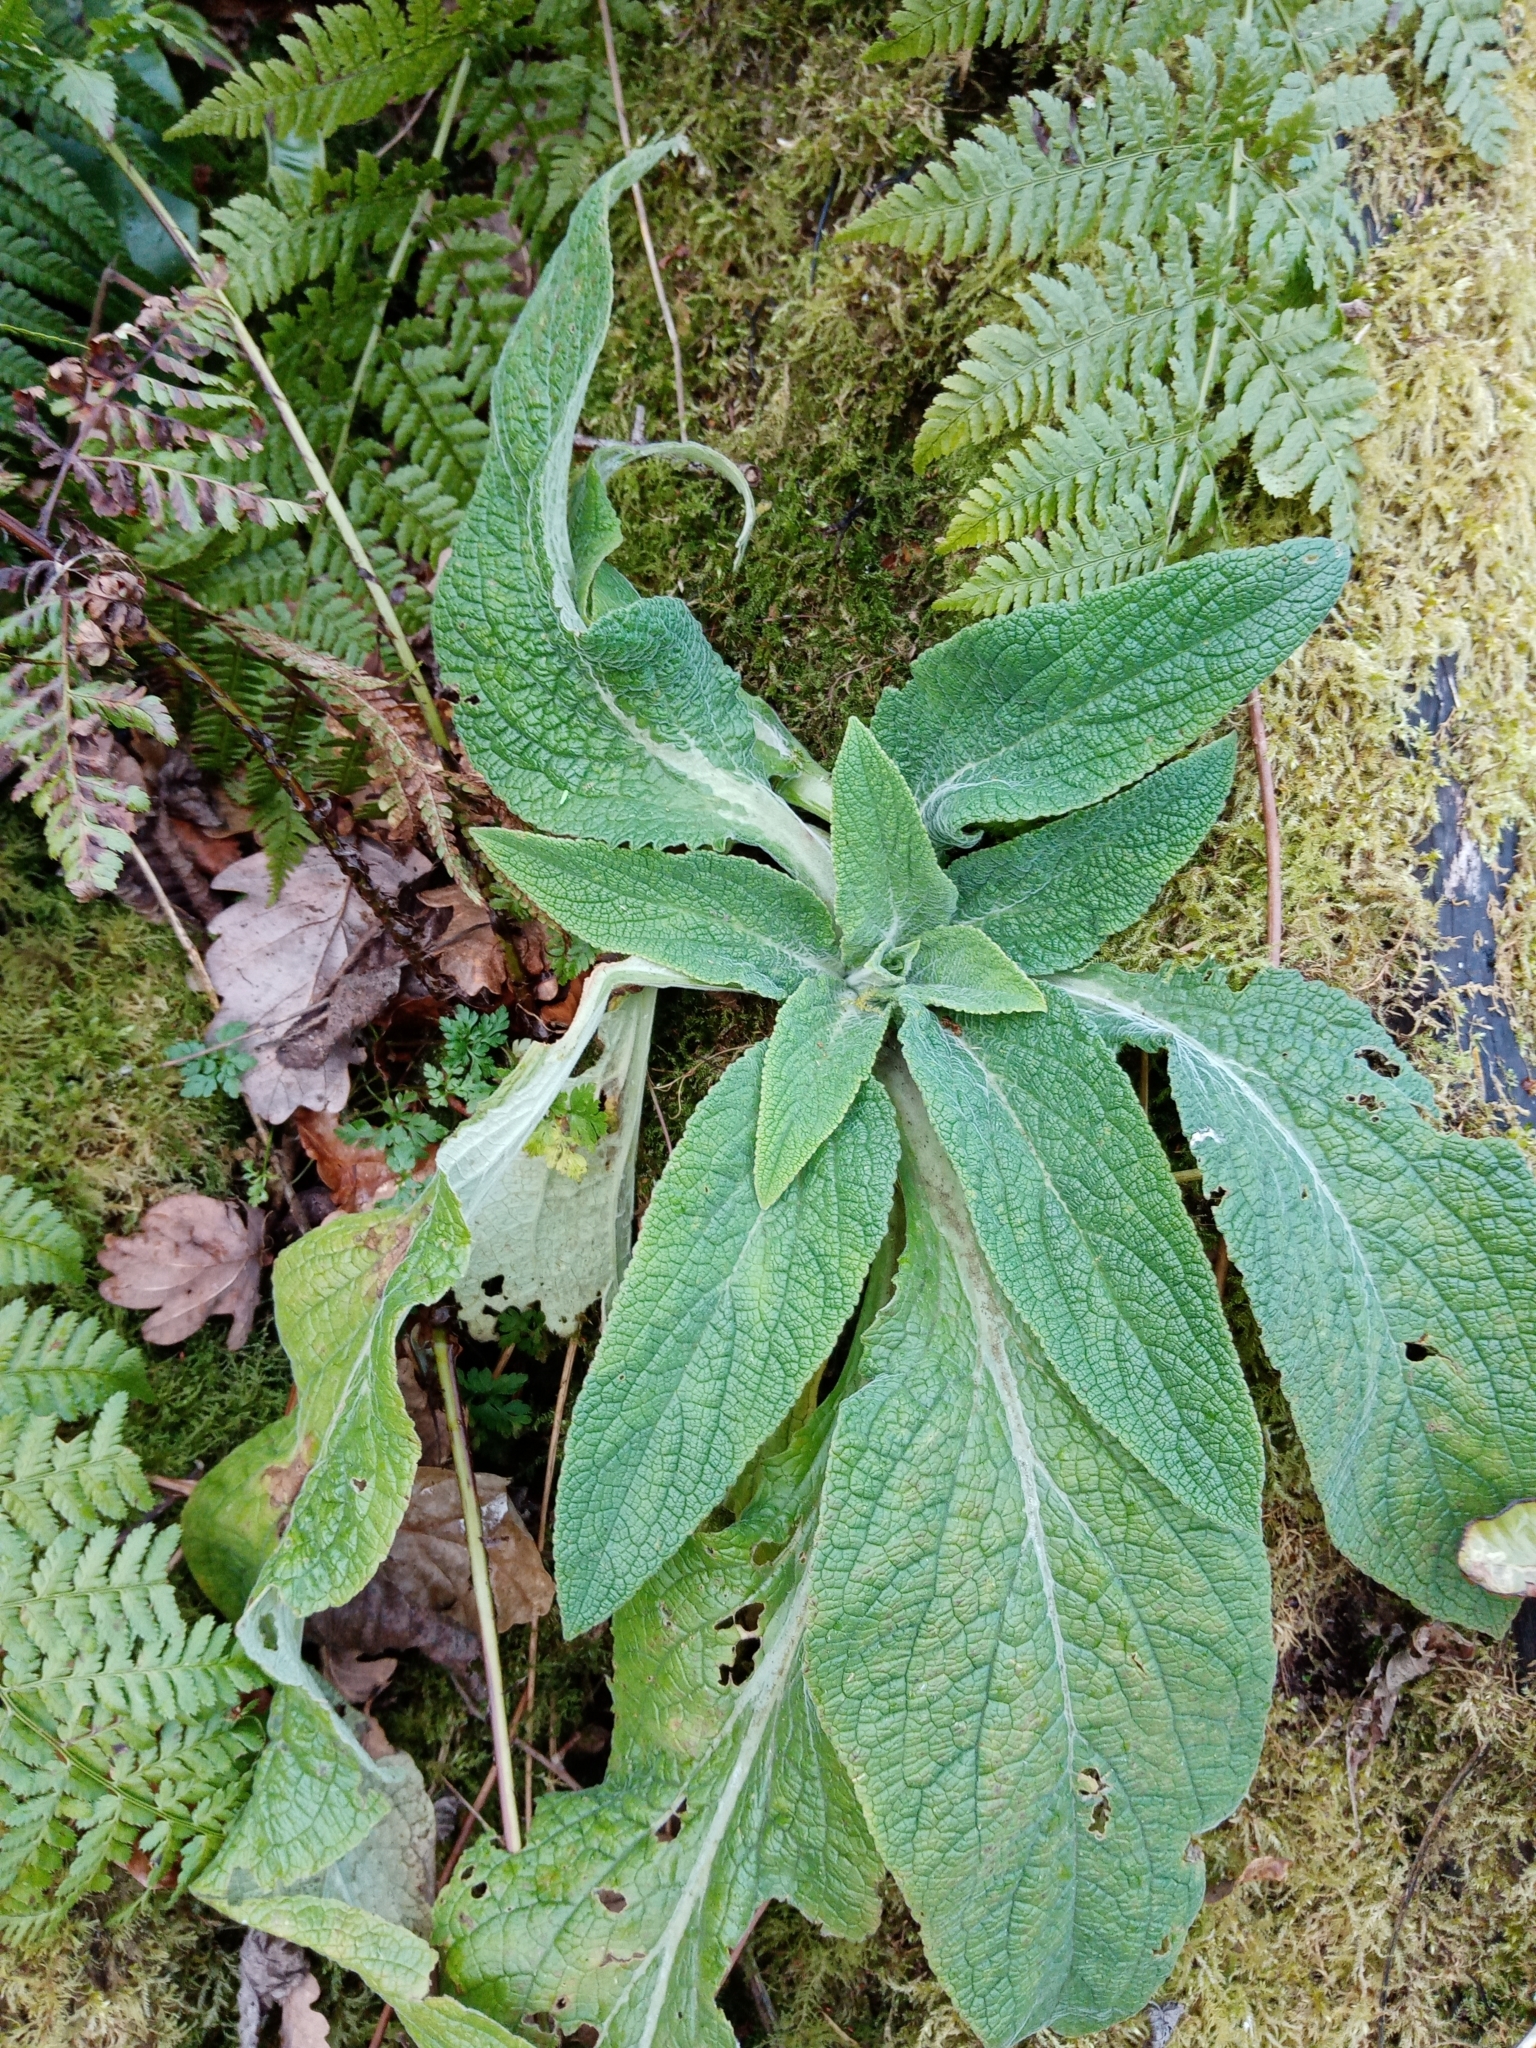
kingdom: Plantae
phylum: Tracheophyta
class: Magnoliopsida
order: Lamiales
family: Plantaginaceae
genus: Digitalis
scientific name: Digitalis purpurea
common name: Foxglove
